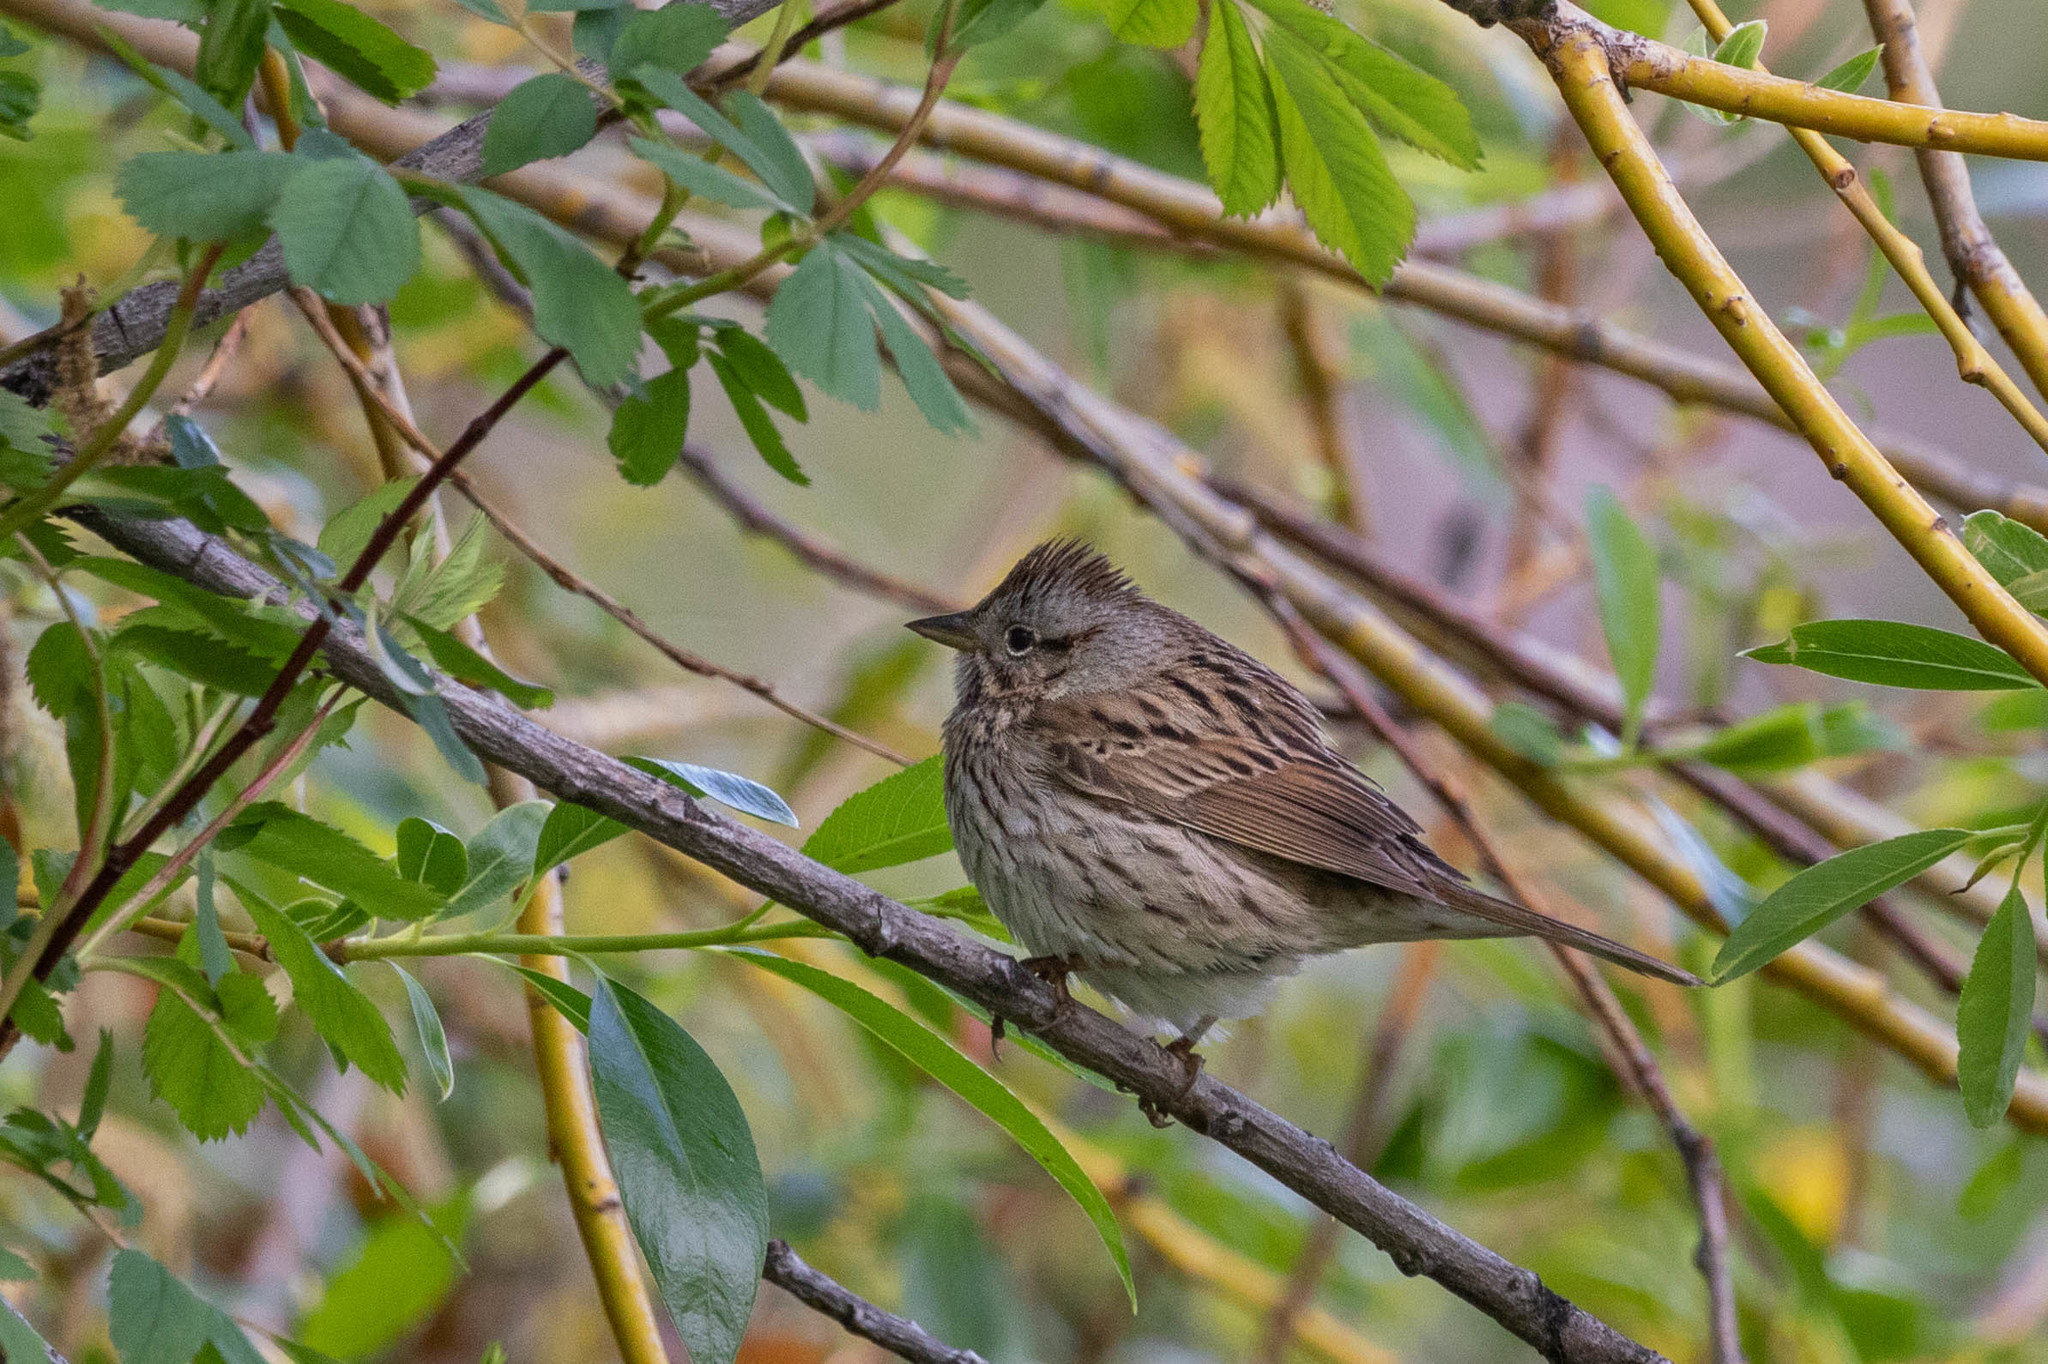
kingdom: Animalia
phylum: Chordata
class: Aves
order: Passeriformes
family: Passerellidae
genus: Melospiza
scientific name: Melospiza lincolnii
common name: Lincoln's sparrow
